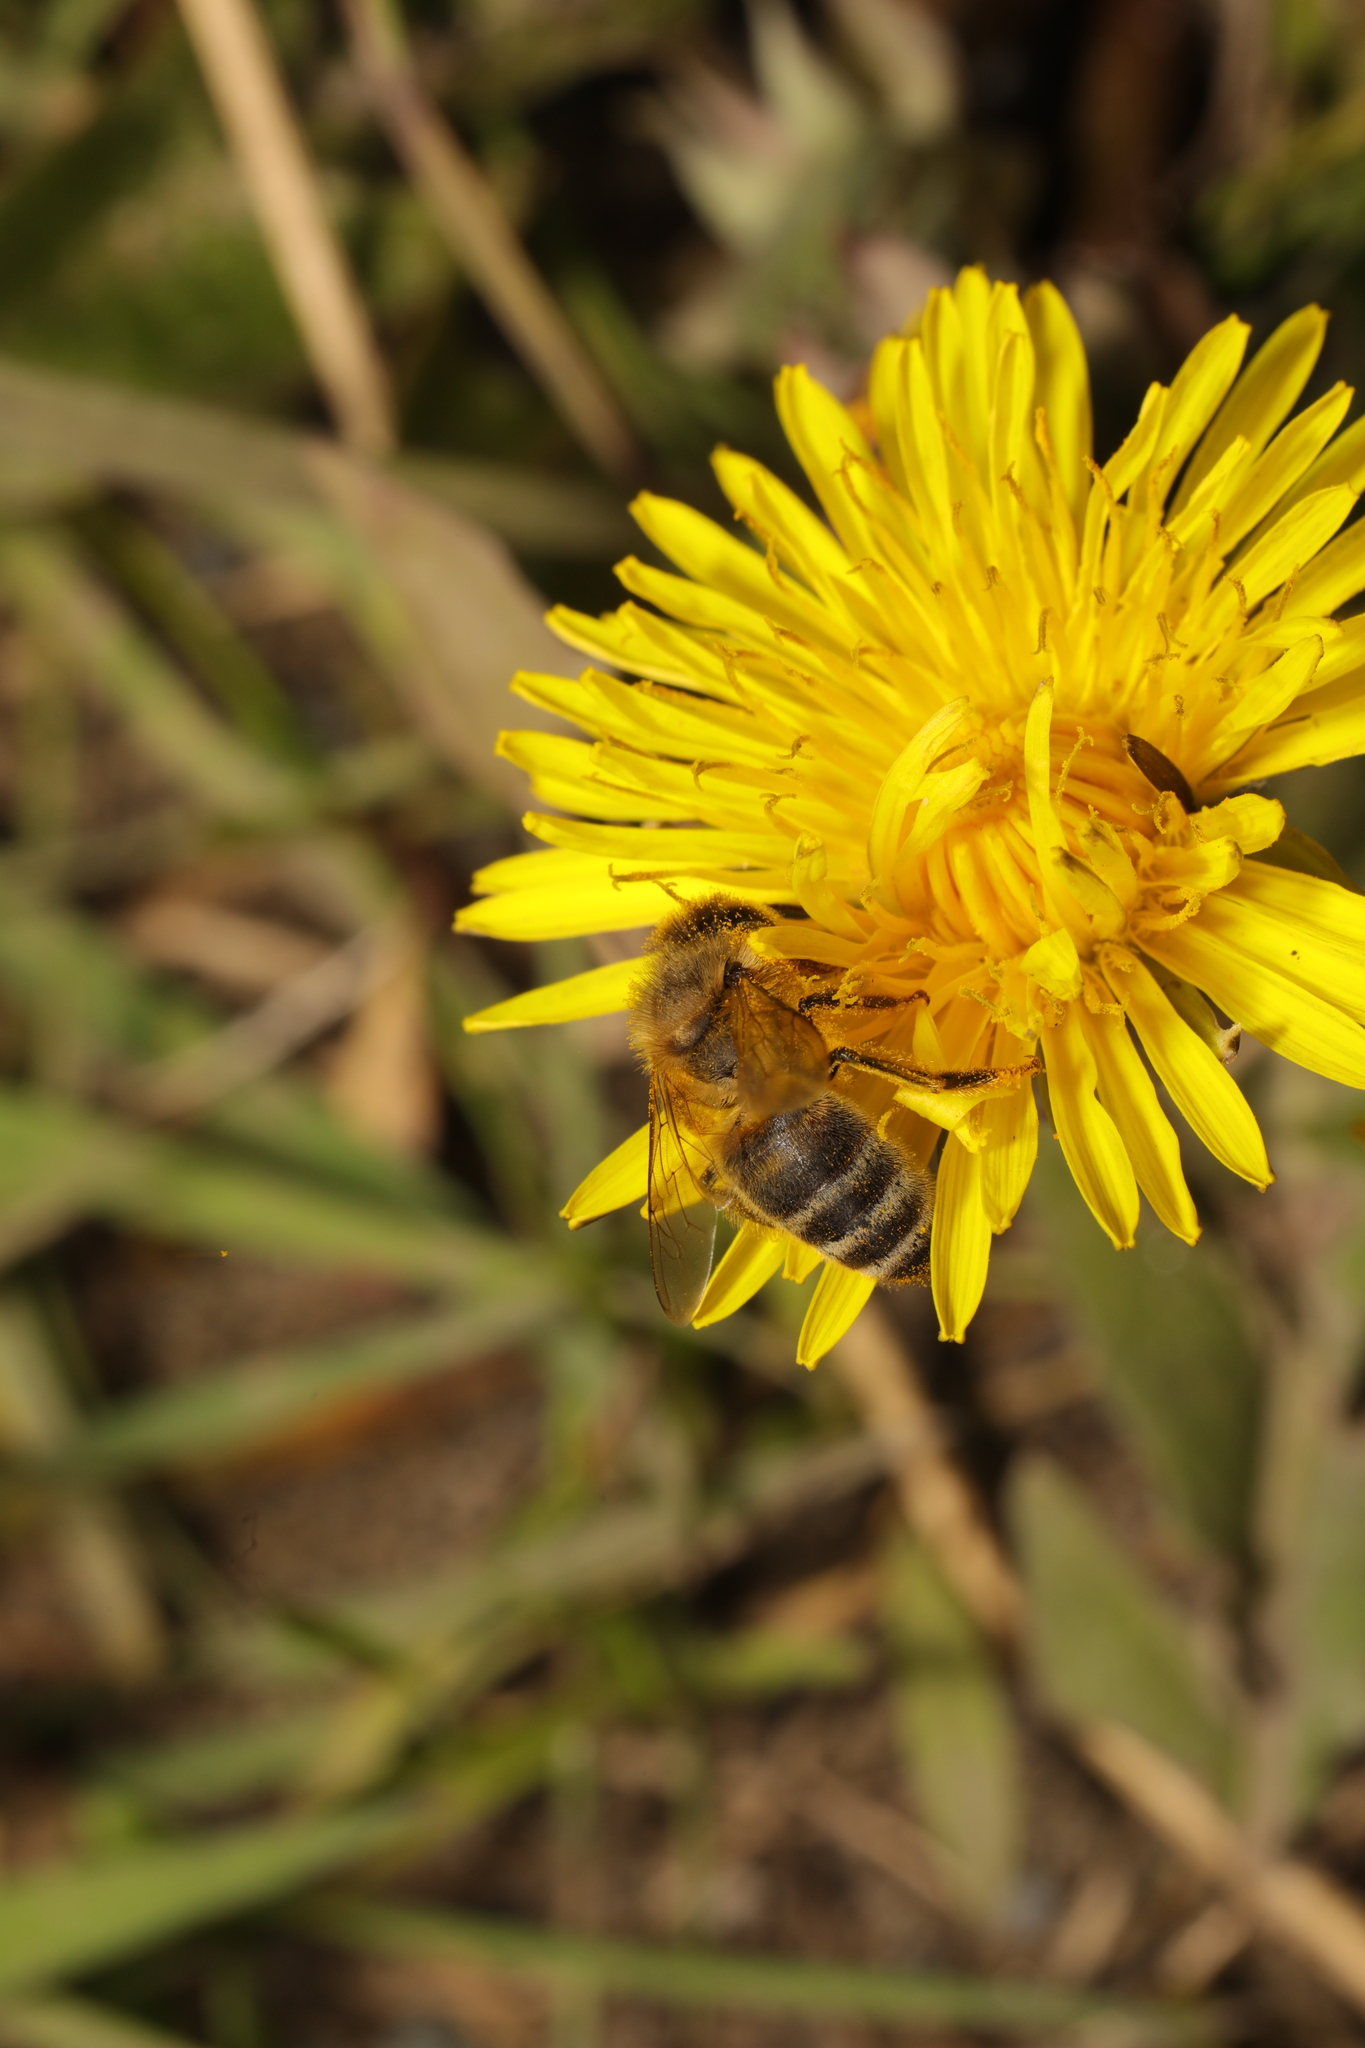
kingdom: Animalia
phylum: Arthropoda
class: Insecta
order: Hymenoptera
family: Apidae
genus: Apis
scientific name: Apis mellifera
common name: Honey bee
